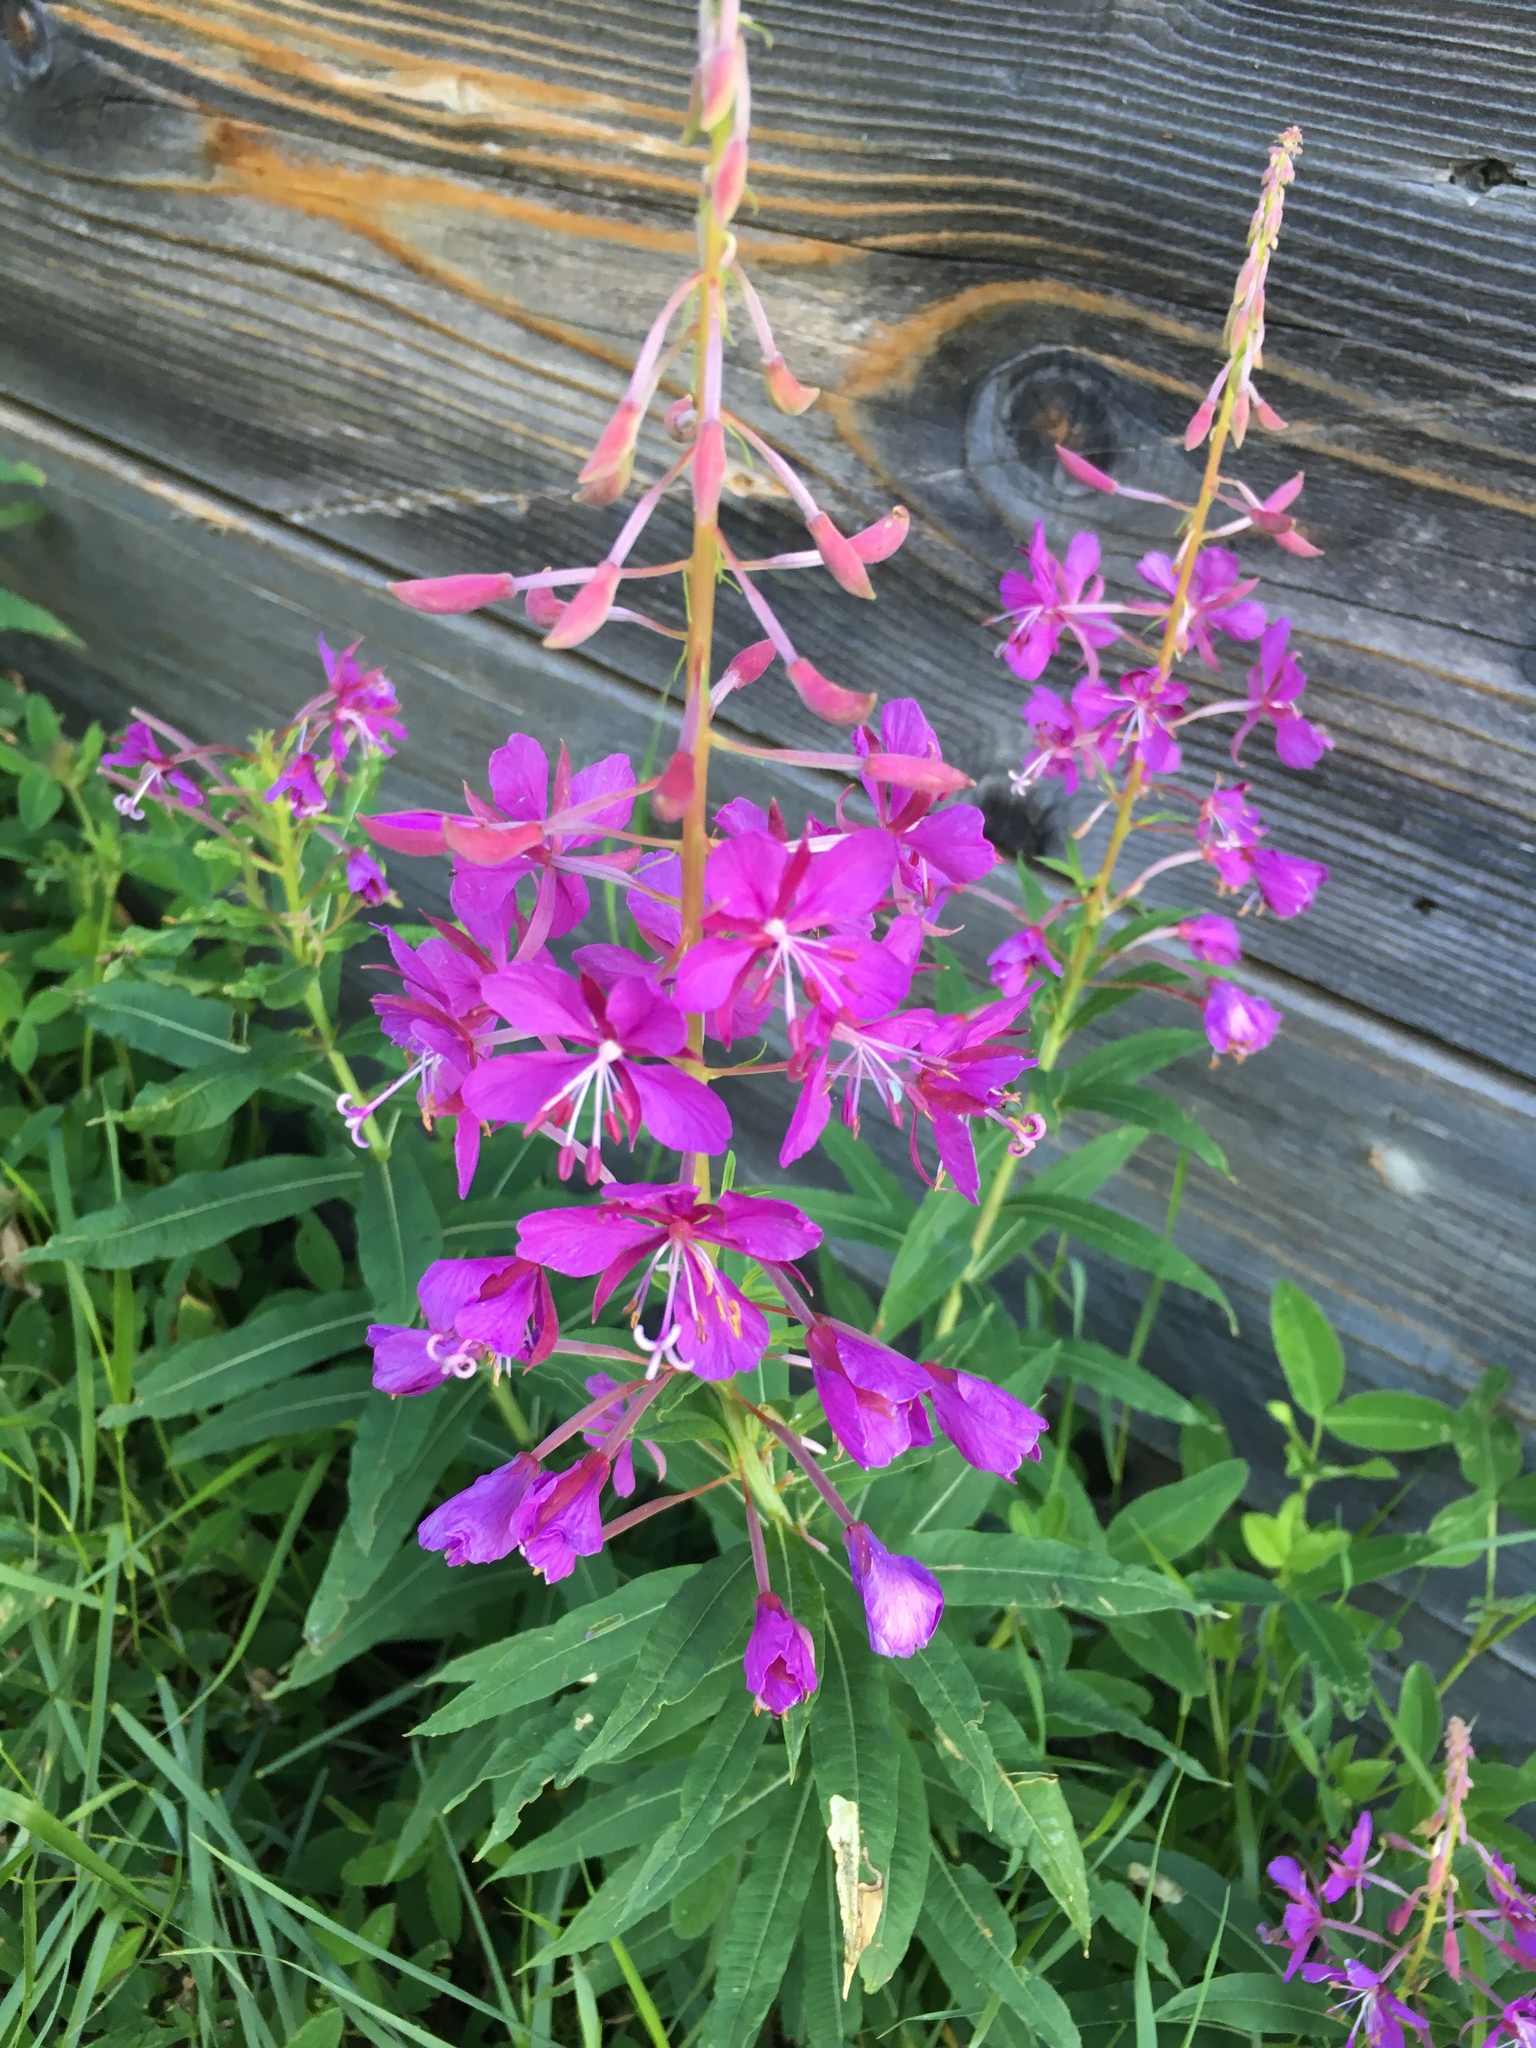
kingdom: Plantae
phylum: Tracheophyta
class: Magnoliopsida
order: Myrtales
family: Onagraceae
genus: Chamaenerion
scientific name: Chamaenerion angustifolium
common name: Fireweed
